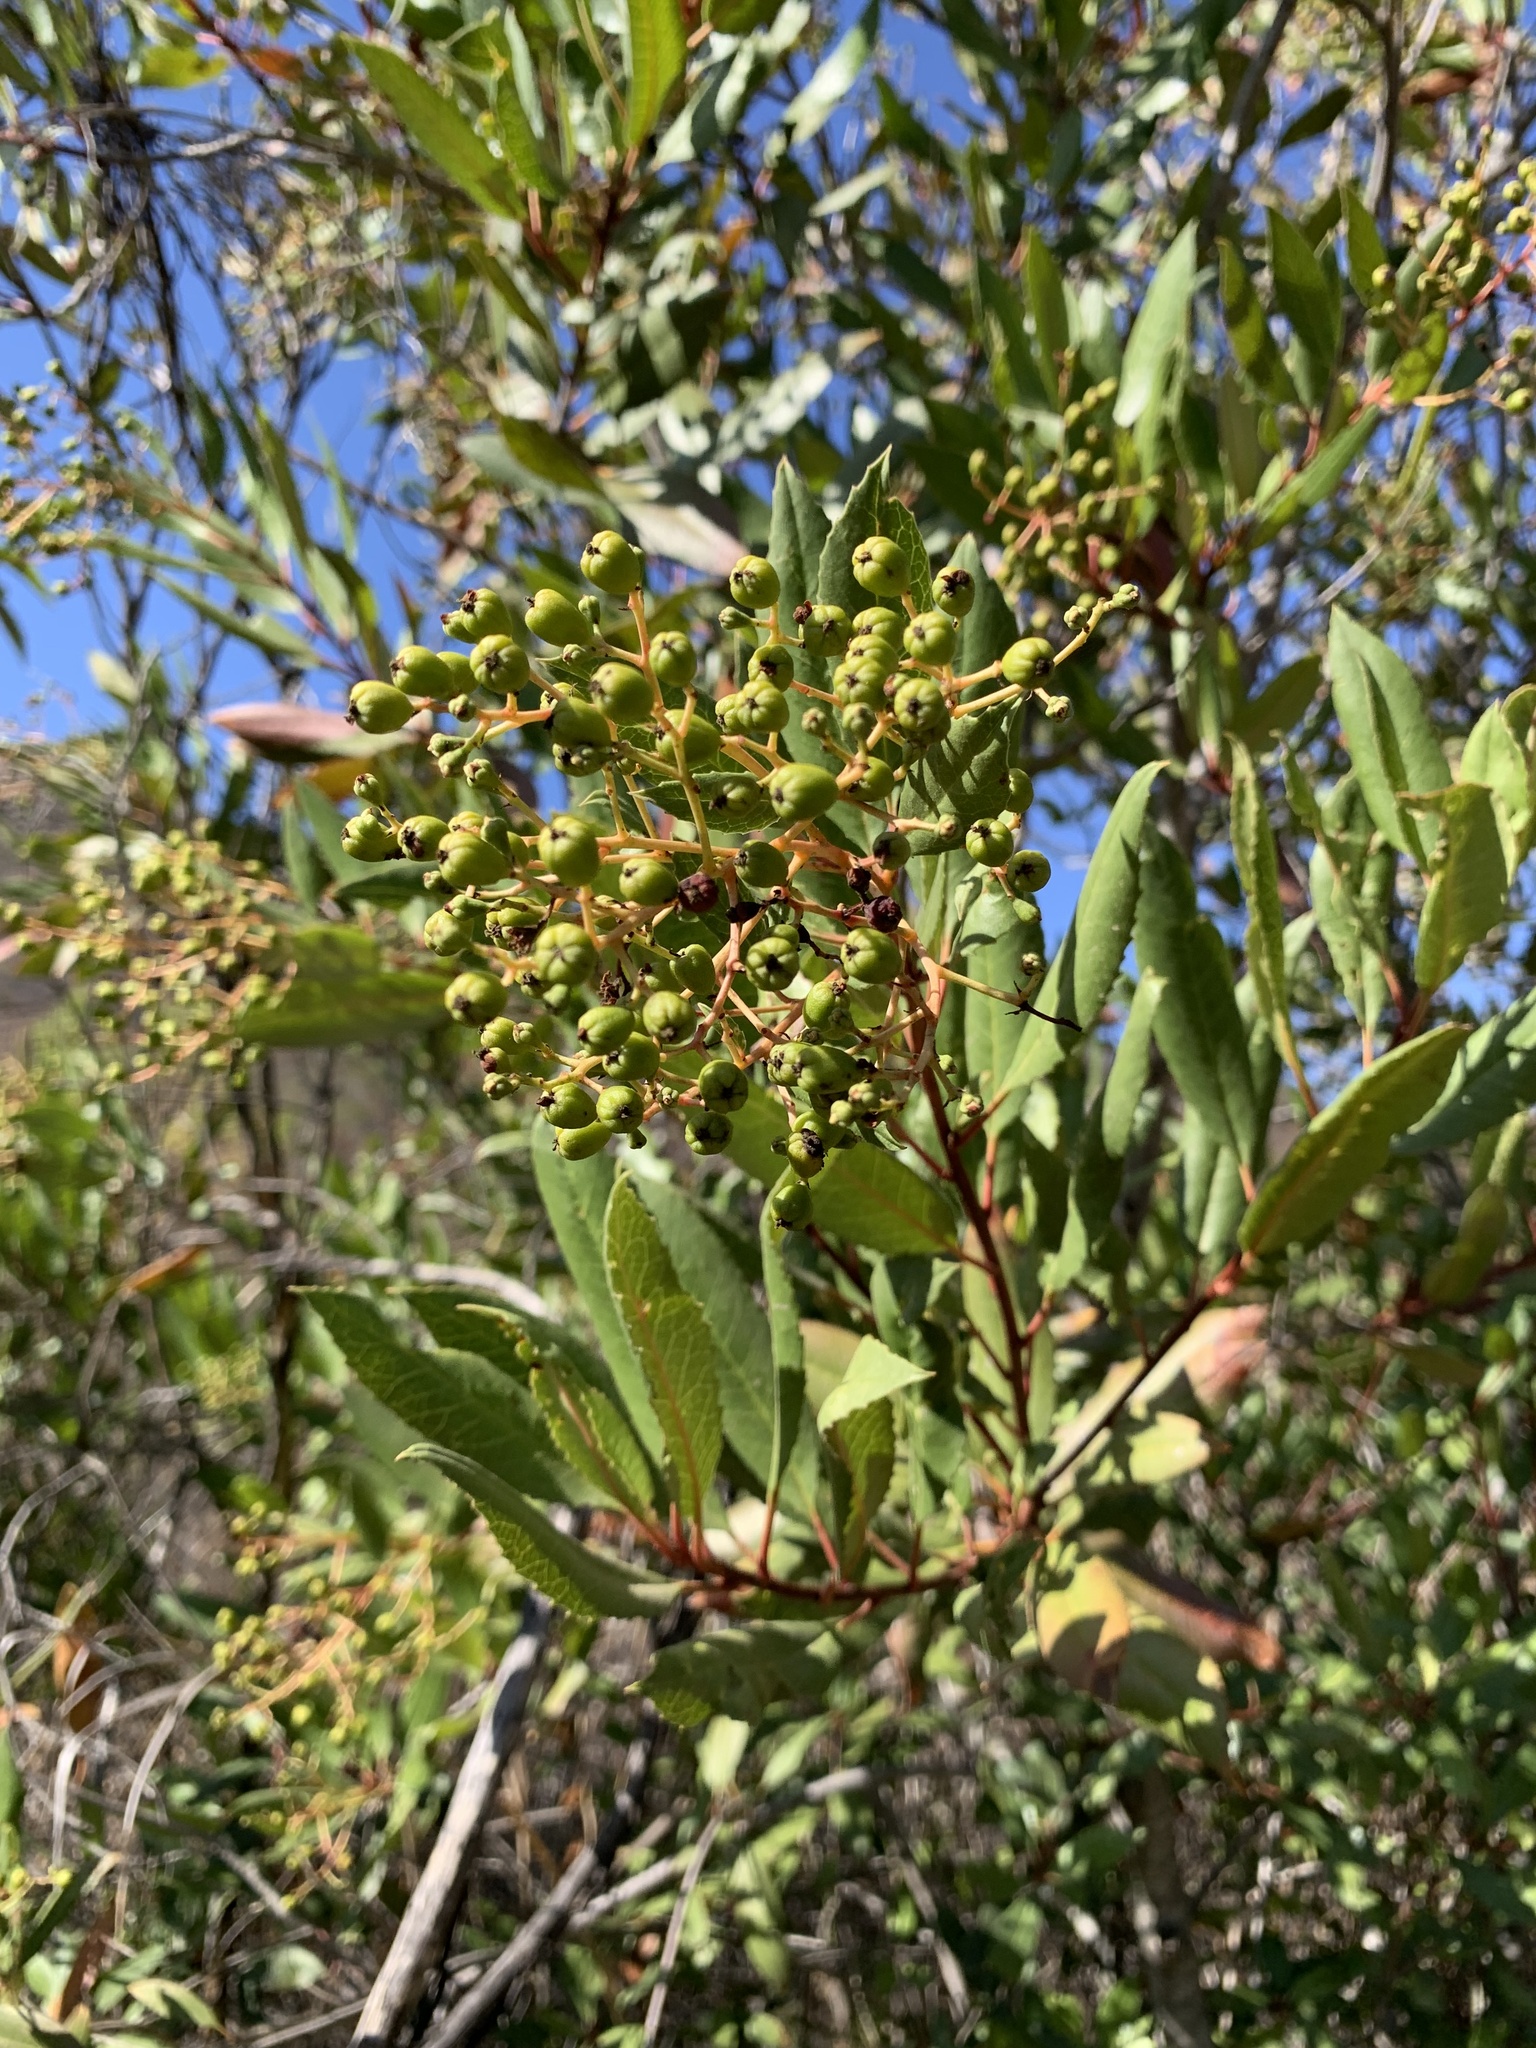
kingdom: Plantae
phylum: Tracheophyta
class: Magnoliopsida
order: Rosales
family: Rosaceae
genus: Heteromeles
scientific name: Heteromeles arbutifolia
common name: California-holly
